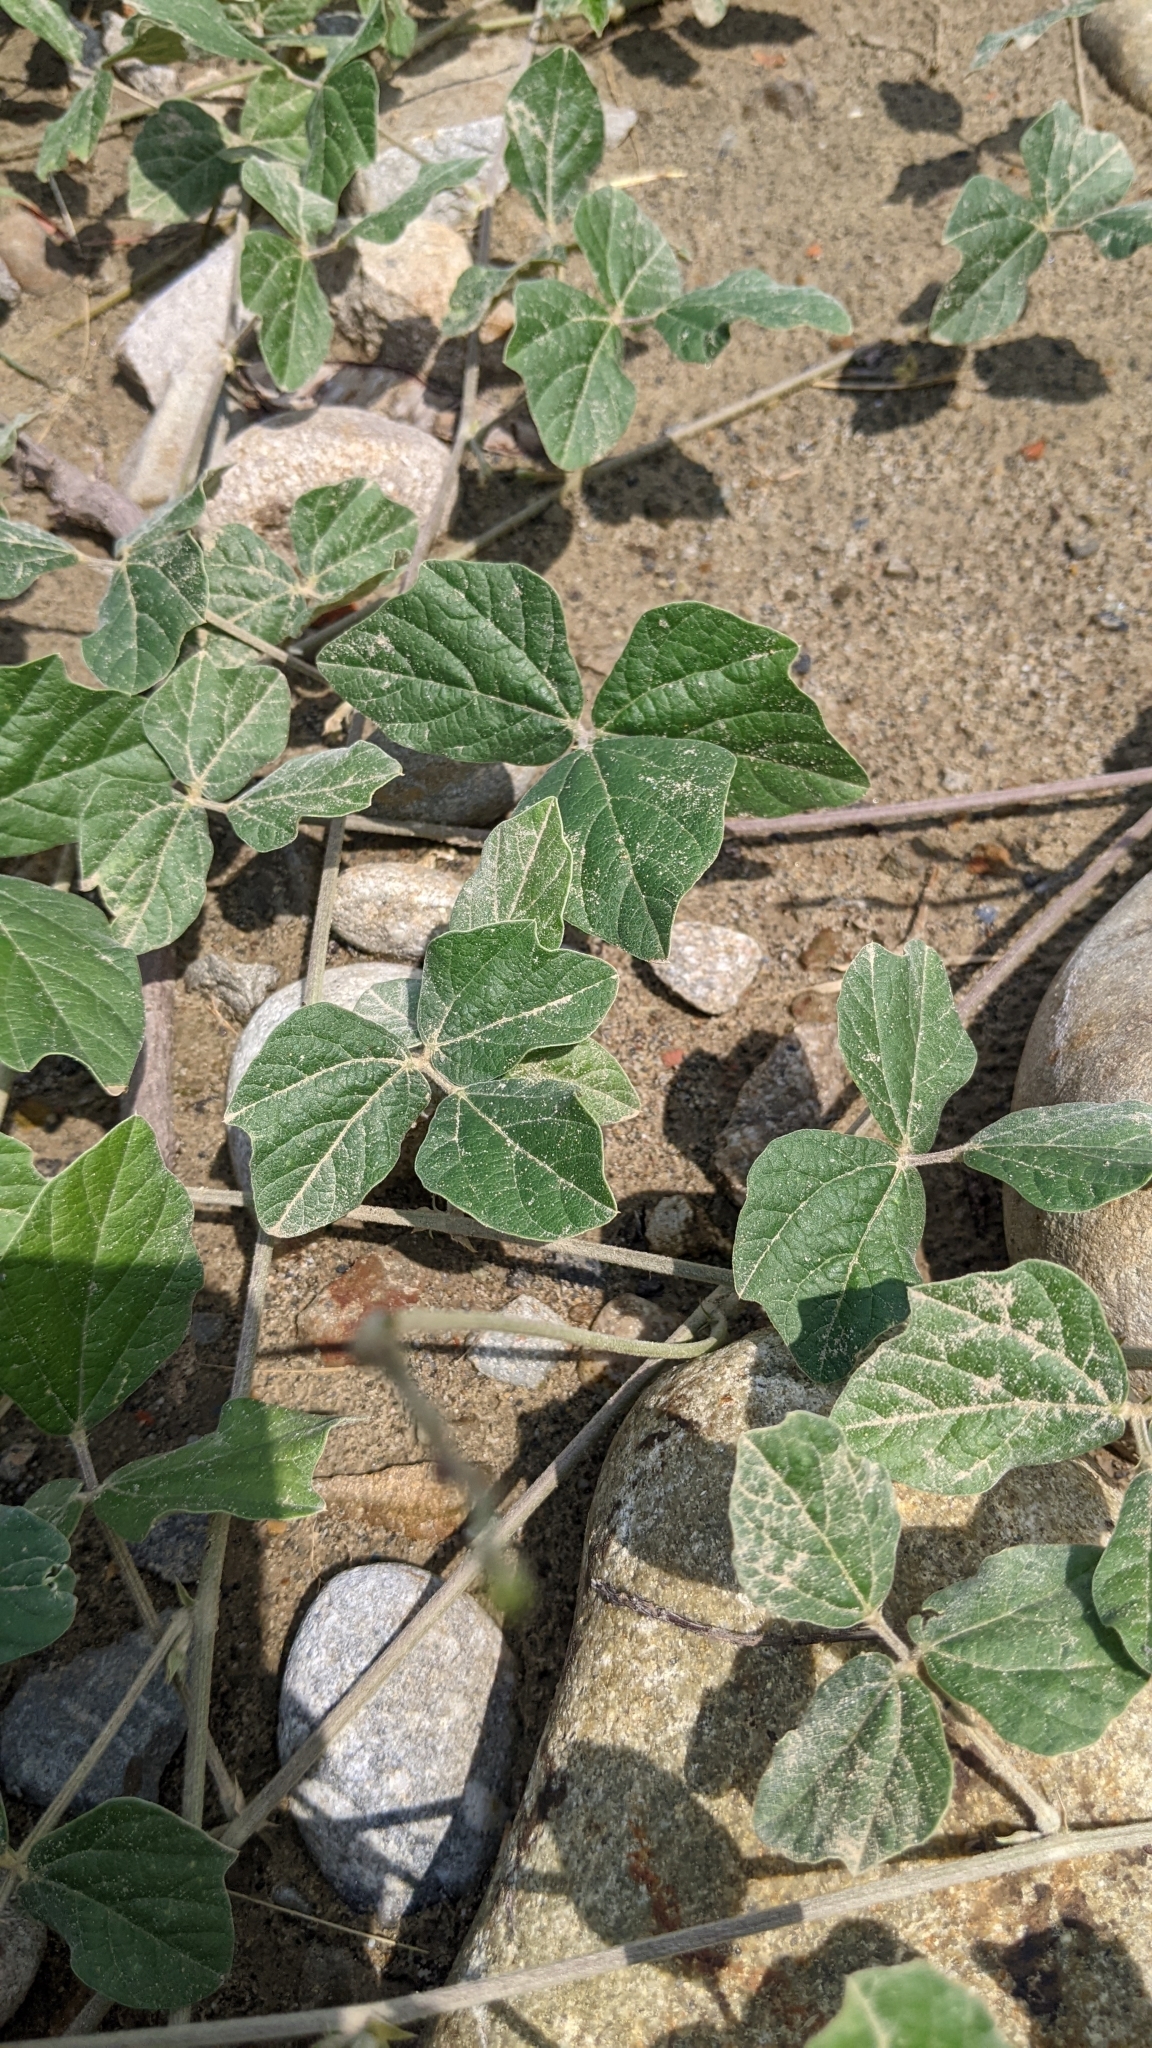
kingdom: Plantae
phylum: Tracheophyta
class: Magnoliopsida
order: Fabales
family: Fabaceae
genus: Macroptilium
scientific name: Macroptilium atropurpureum
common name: Purple bushbean
